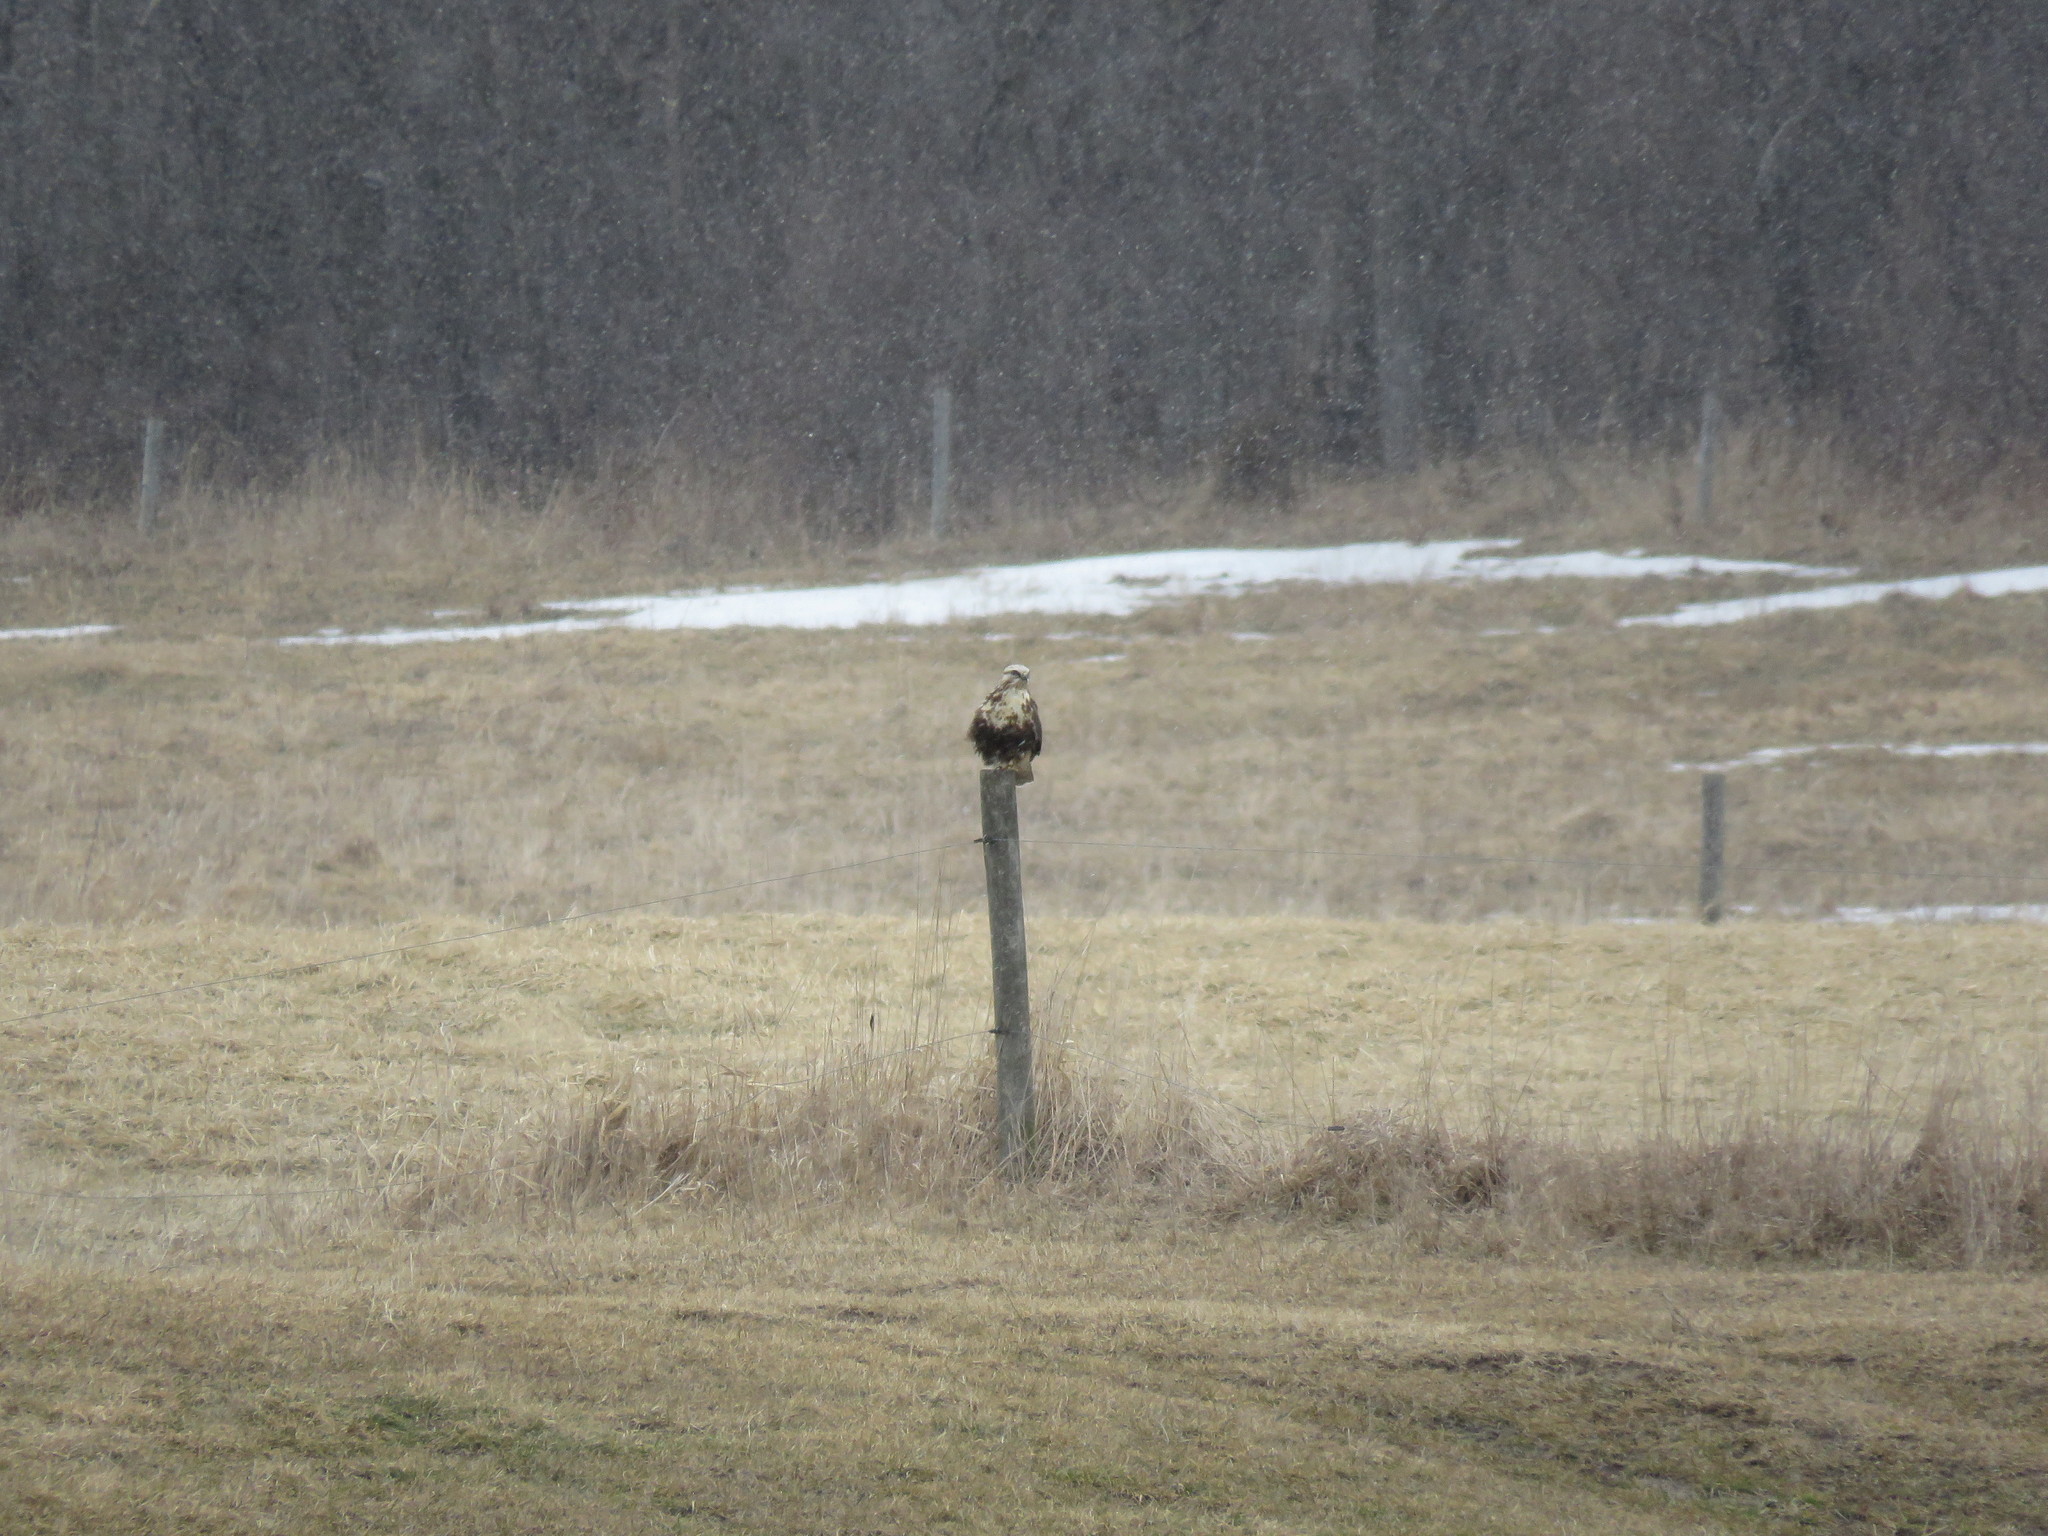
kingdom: Animalia
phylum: Chordata
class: Aves
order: Accipitriformes
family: Accipitridae
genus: Buteo
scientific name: Buteo lagopus
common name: Rough-legged buzzard
